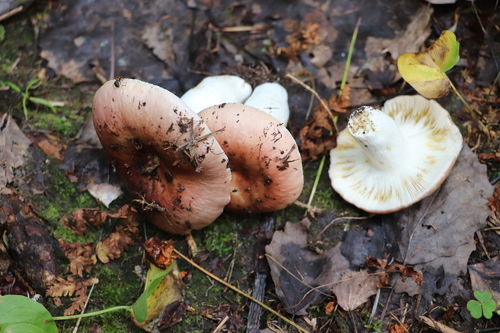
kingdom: Fungi
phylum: Basidiomycota
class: Agaricomycetes
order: Russulales
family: Russulaceae
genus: Russula
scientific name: Russula vesca
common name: Bare-toothed russula
